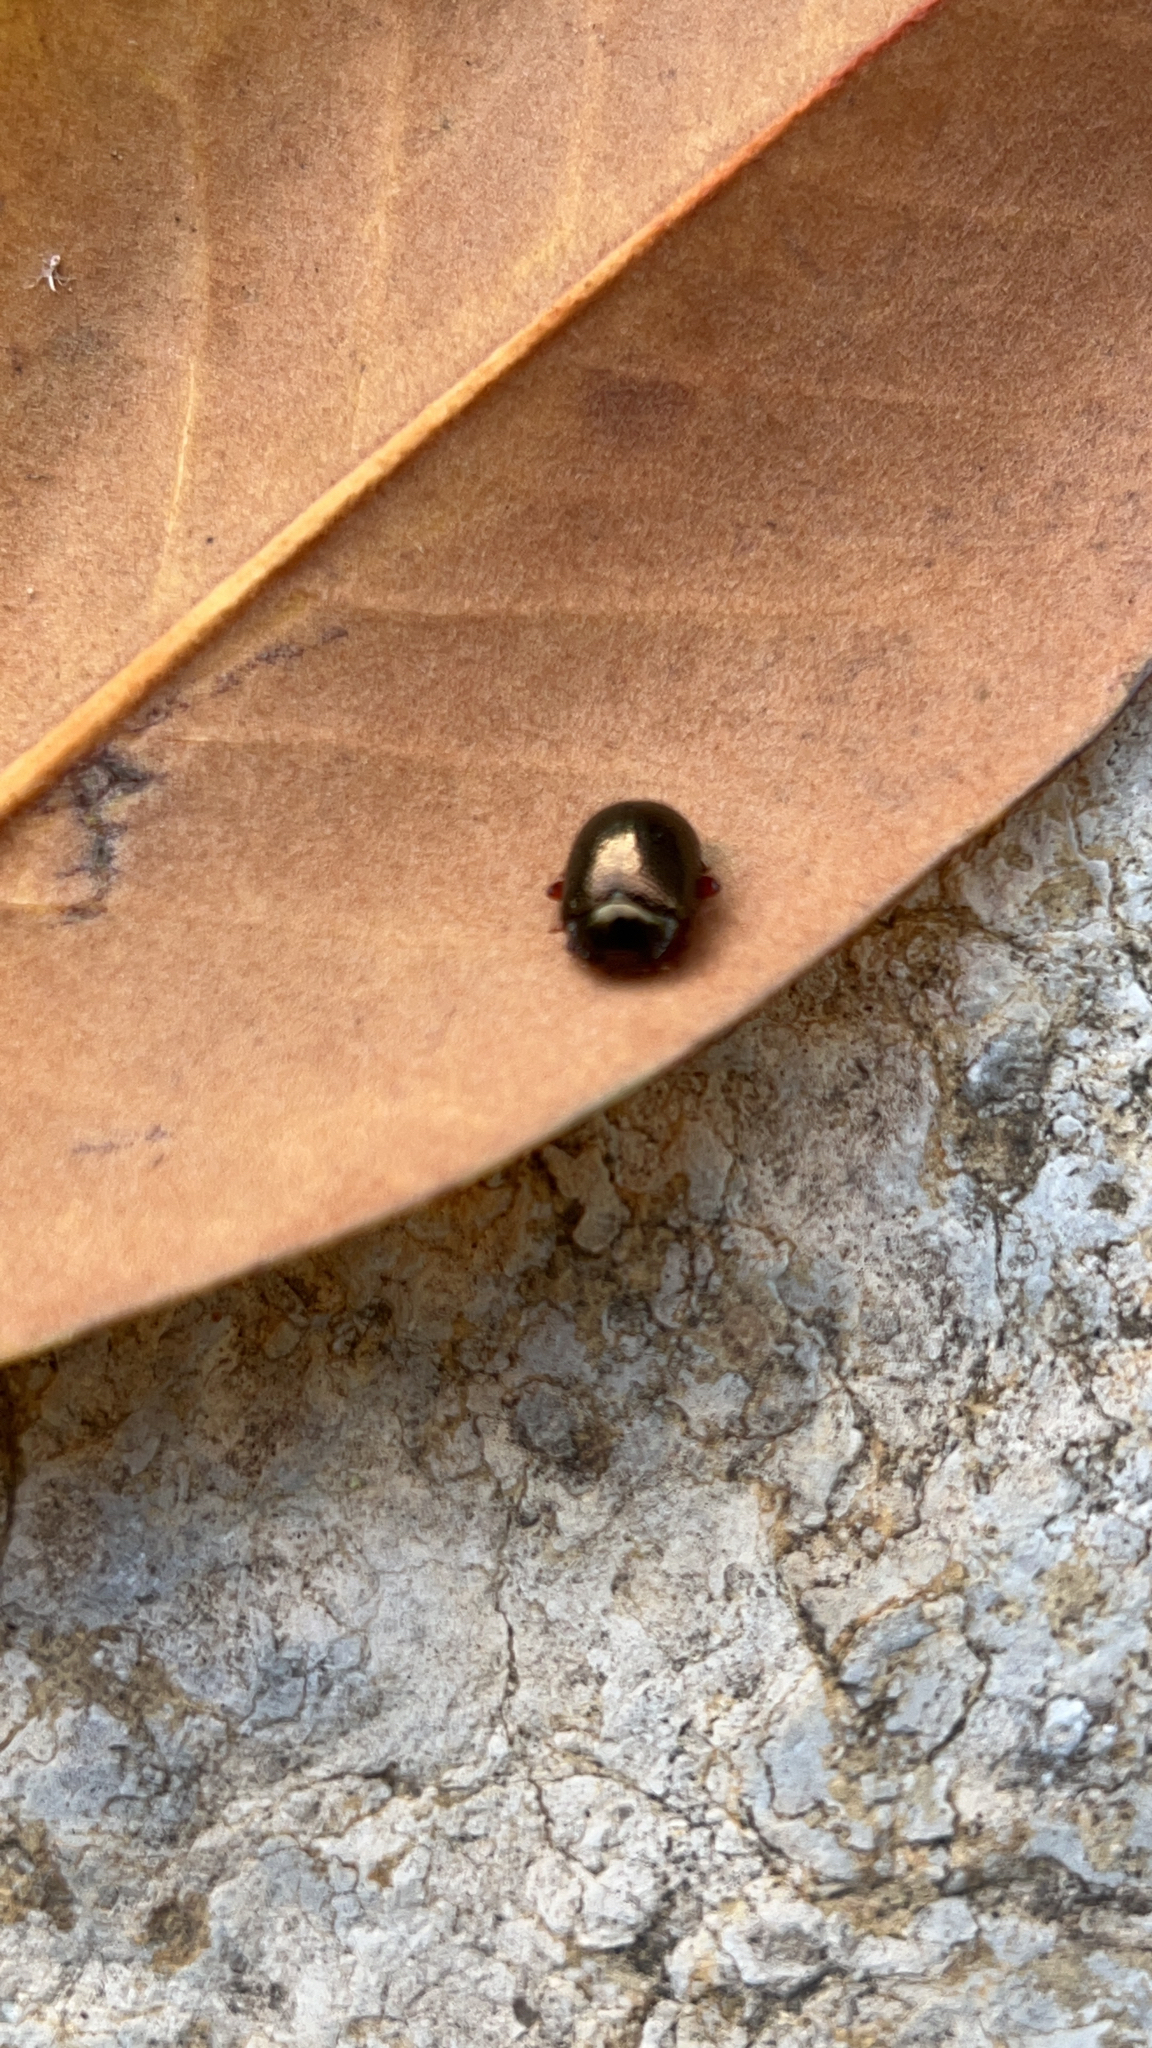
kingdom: Animalia
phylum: Arthropoda
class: Insecta
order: Coleoptera
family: Chrysomelidae
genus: Chrysolina
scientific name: Chrysolina bankii
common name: Leaf beetle
